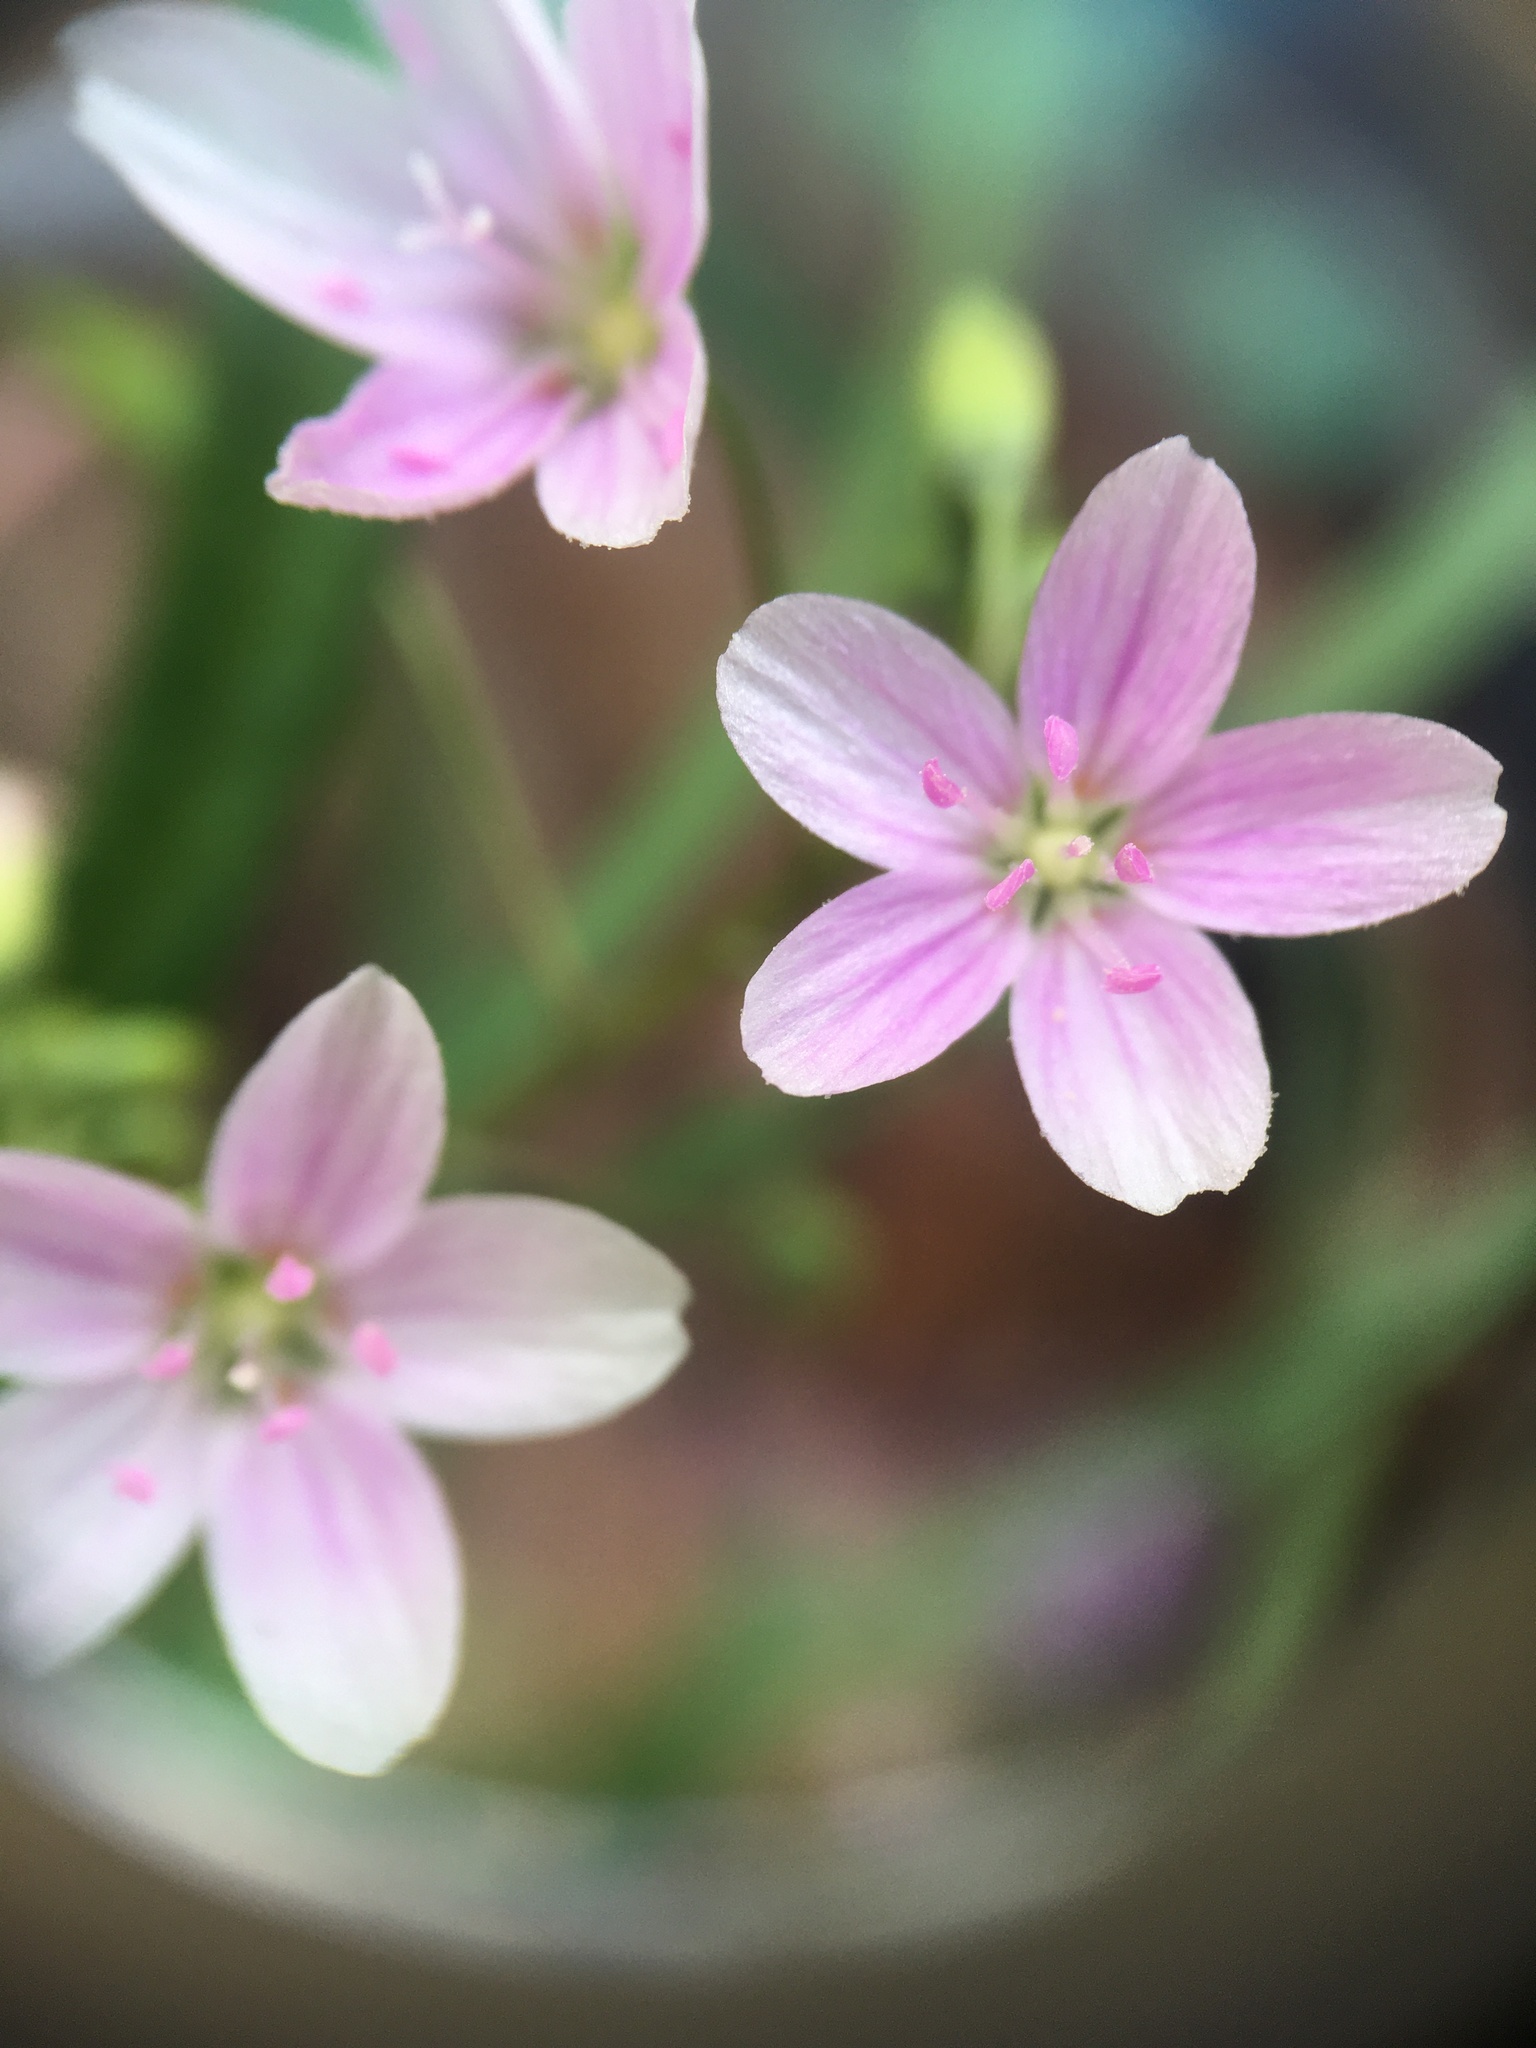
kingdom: Plantae
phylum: Tracheophyta
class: Magnoliopsida
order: Caryophyllales
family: Montiaceae
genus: Claytonia
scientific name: Claytonia virginica
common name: Virginia springbeauty
